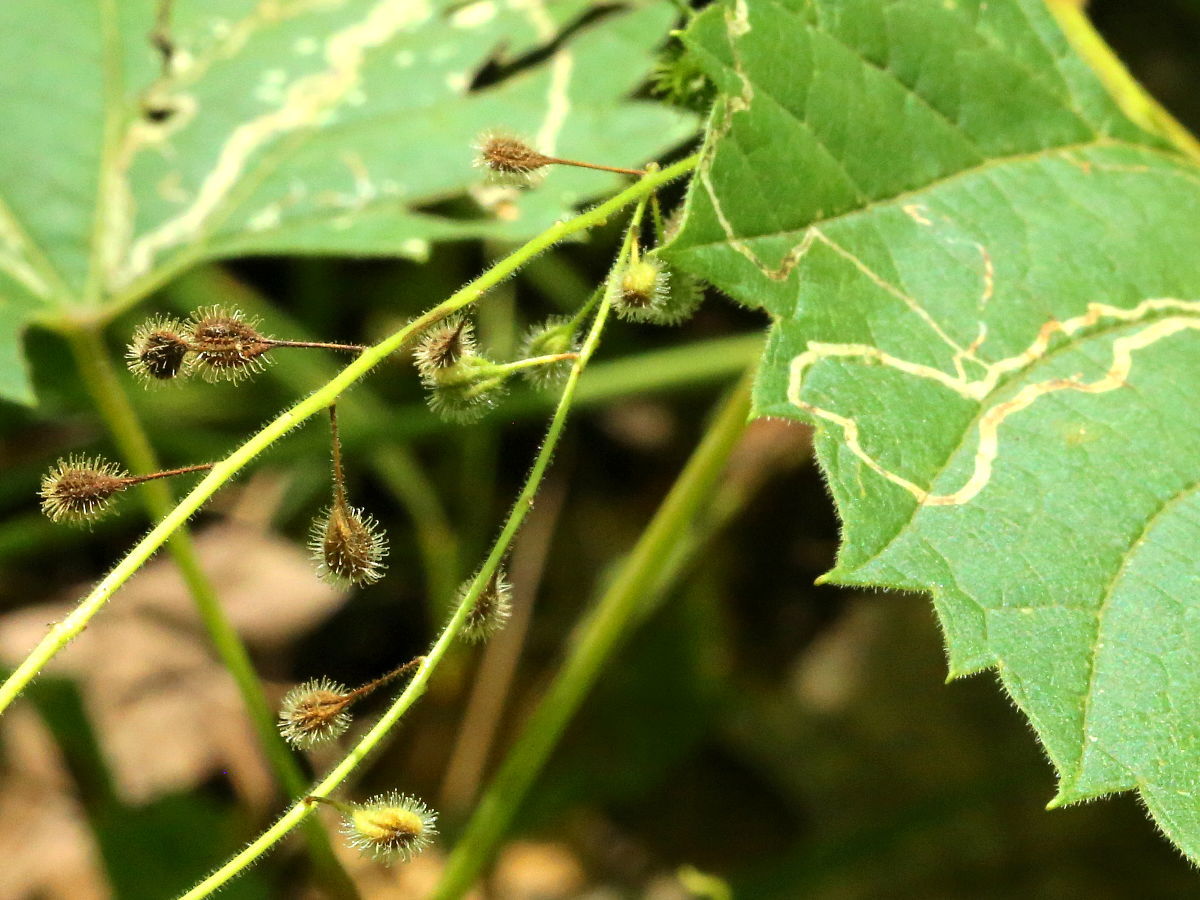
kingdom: Plantae
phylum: Tracheophyta
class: Magnoliopsida
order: Myrtales
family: Onagraceae
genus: Circaea
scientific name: Circaea canadensis
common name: Broad-leaved enchanter's nightshade
